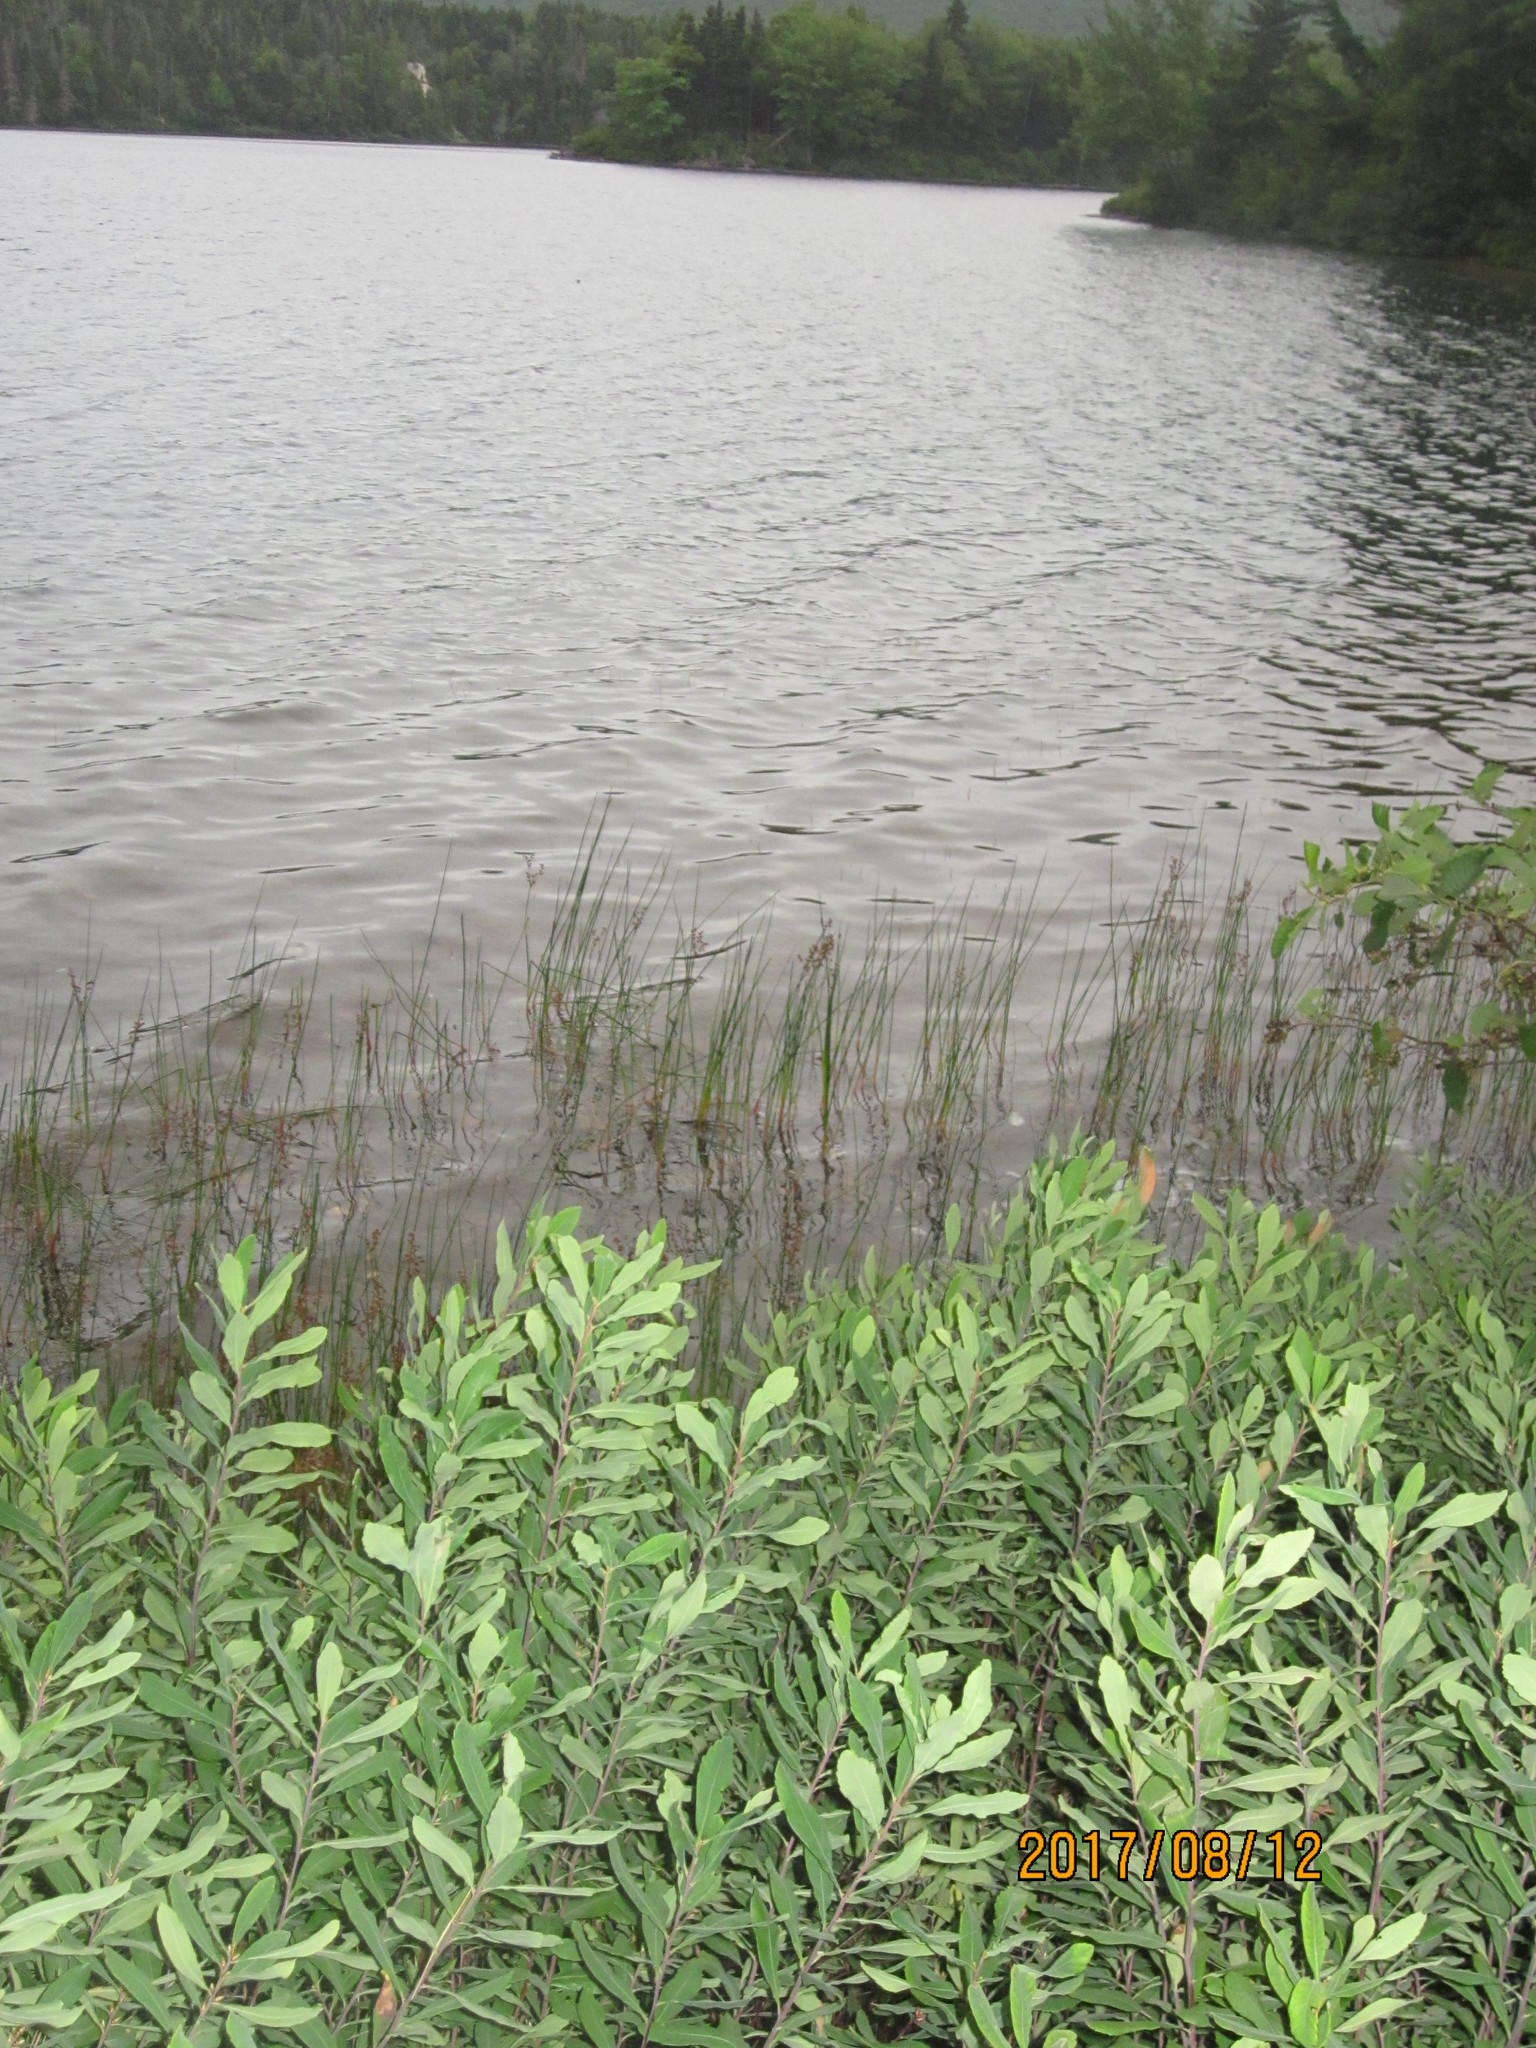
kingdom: Plantae
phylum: Tracheophyta
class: Magnoliopsida
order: Fagales
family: Myricaceae
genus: Myrica
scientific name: Myrica gale
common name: Sweet gale
